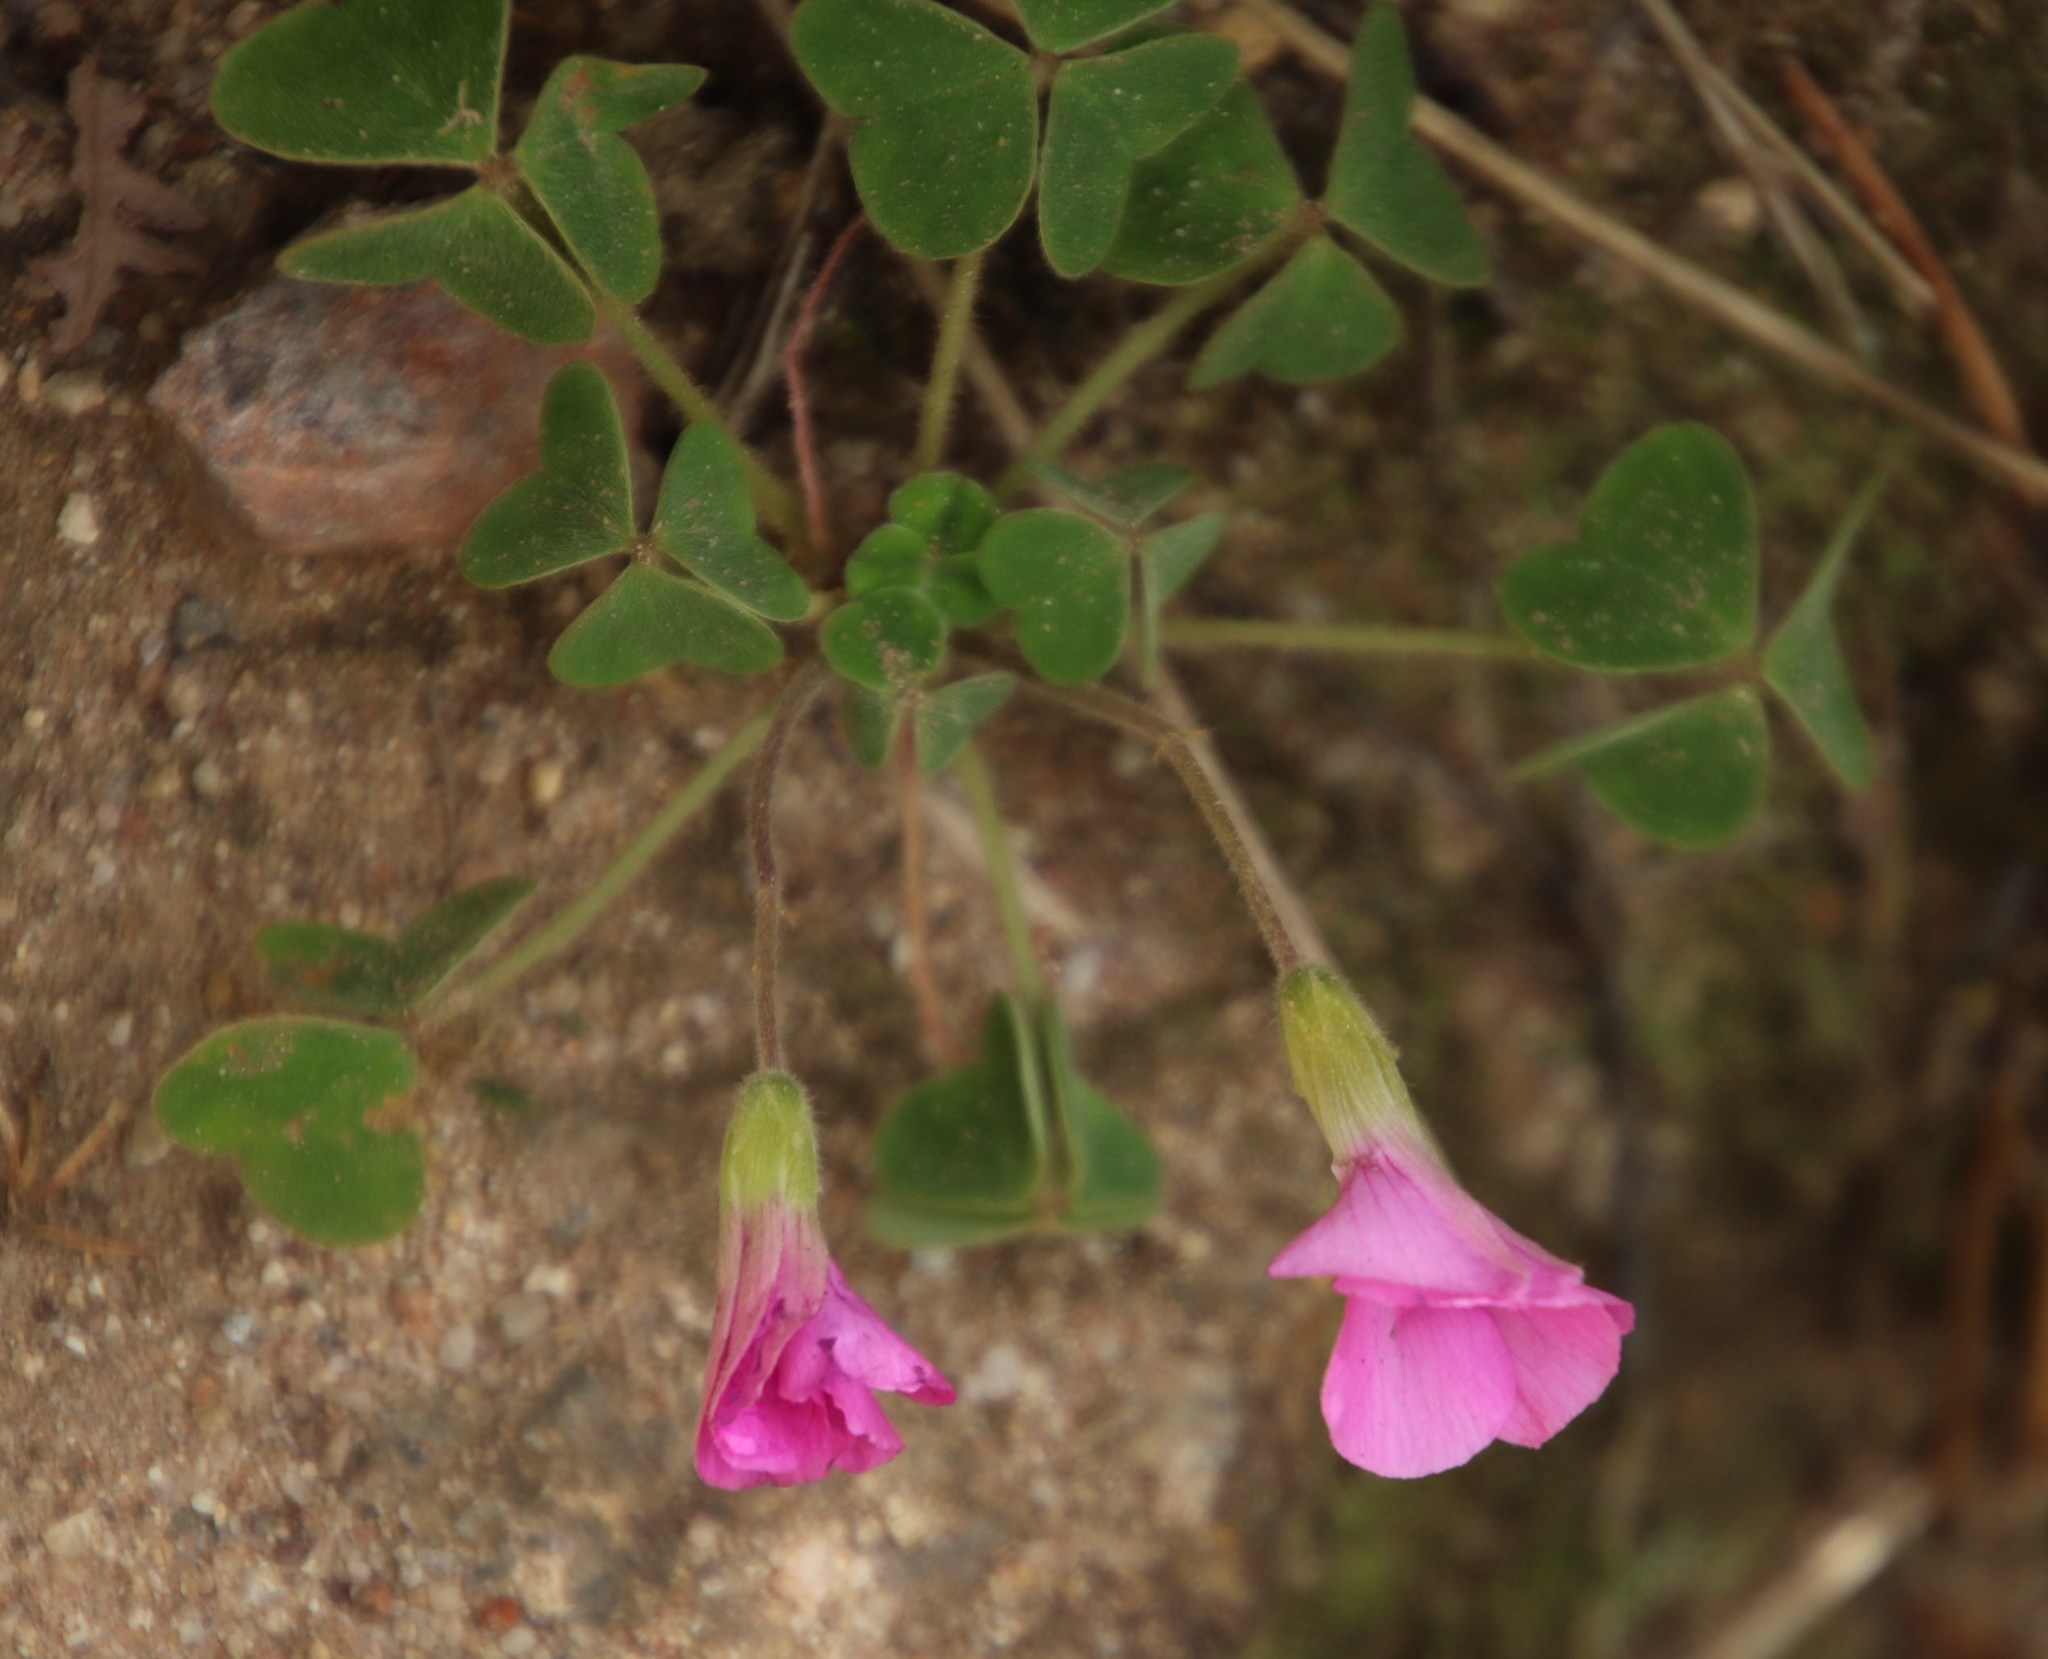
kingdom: Plantae
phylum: Tracheophyta
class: Magnoliopsida
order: Oxalidales
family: Oxalidaceae
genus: Oxalis
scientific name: Oxalis lanata
